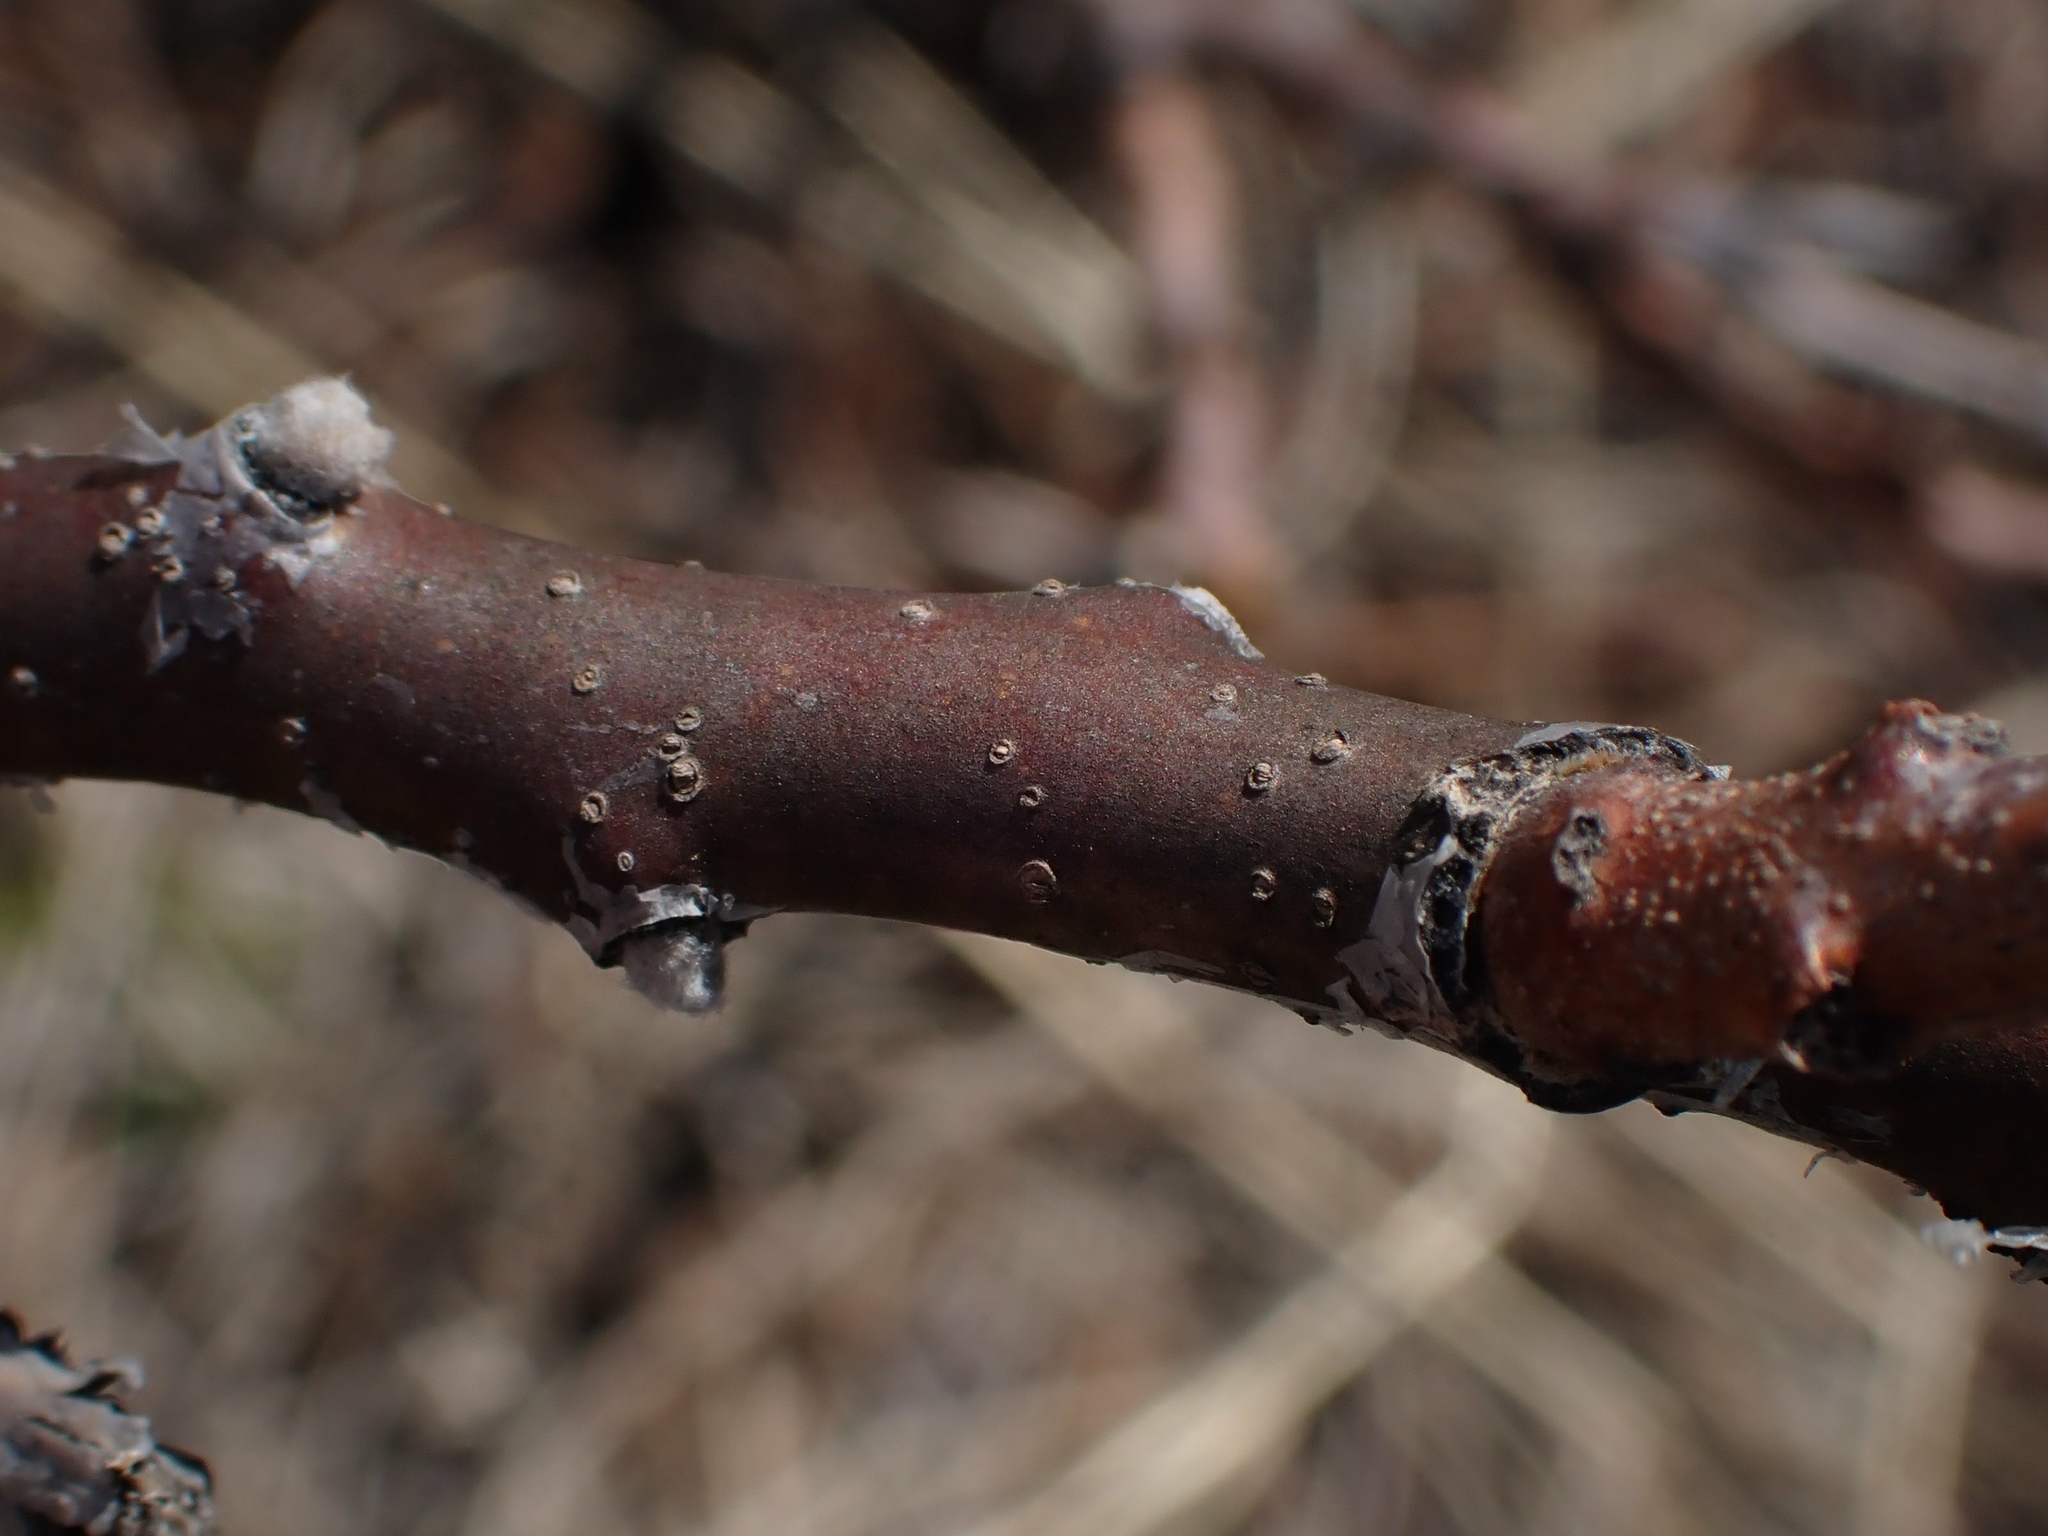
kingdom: Plantae
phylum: Tracheophyta
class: Magnoliopsida
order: Sapindales
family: Anacardiaceae
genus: Rhus
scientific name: Rhus glabra
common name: Scarlet sumac
